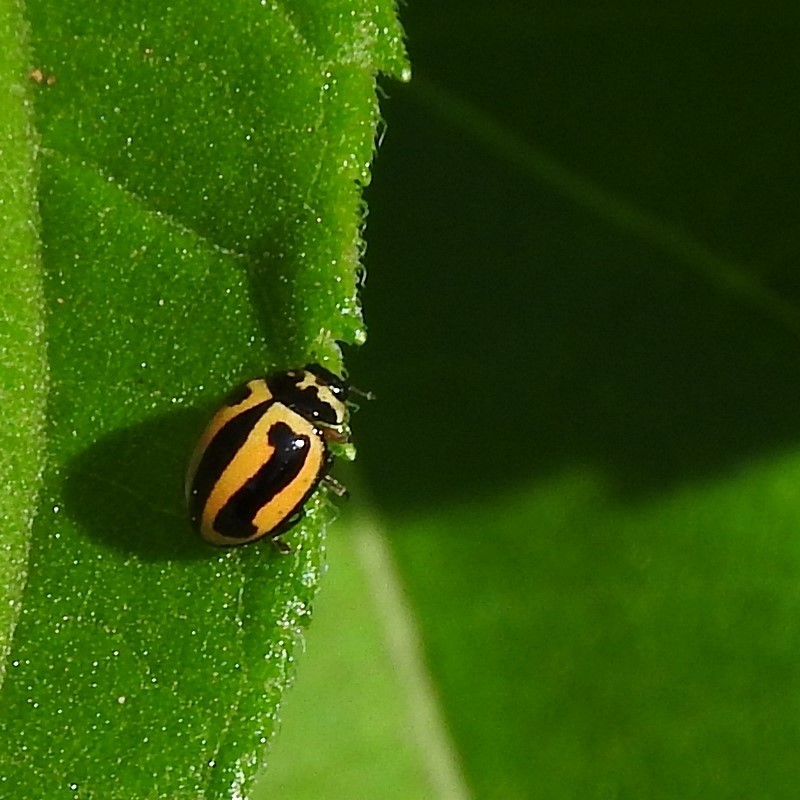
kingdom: Animalia
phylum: Arthropoda
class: Insecta
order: Coleoptera
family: Coccinellidae
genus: Micraspis
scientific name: Micraspis frenata
